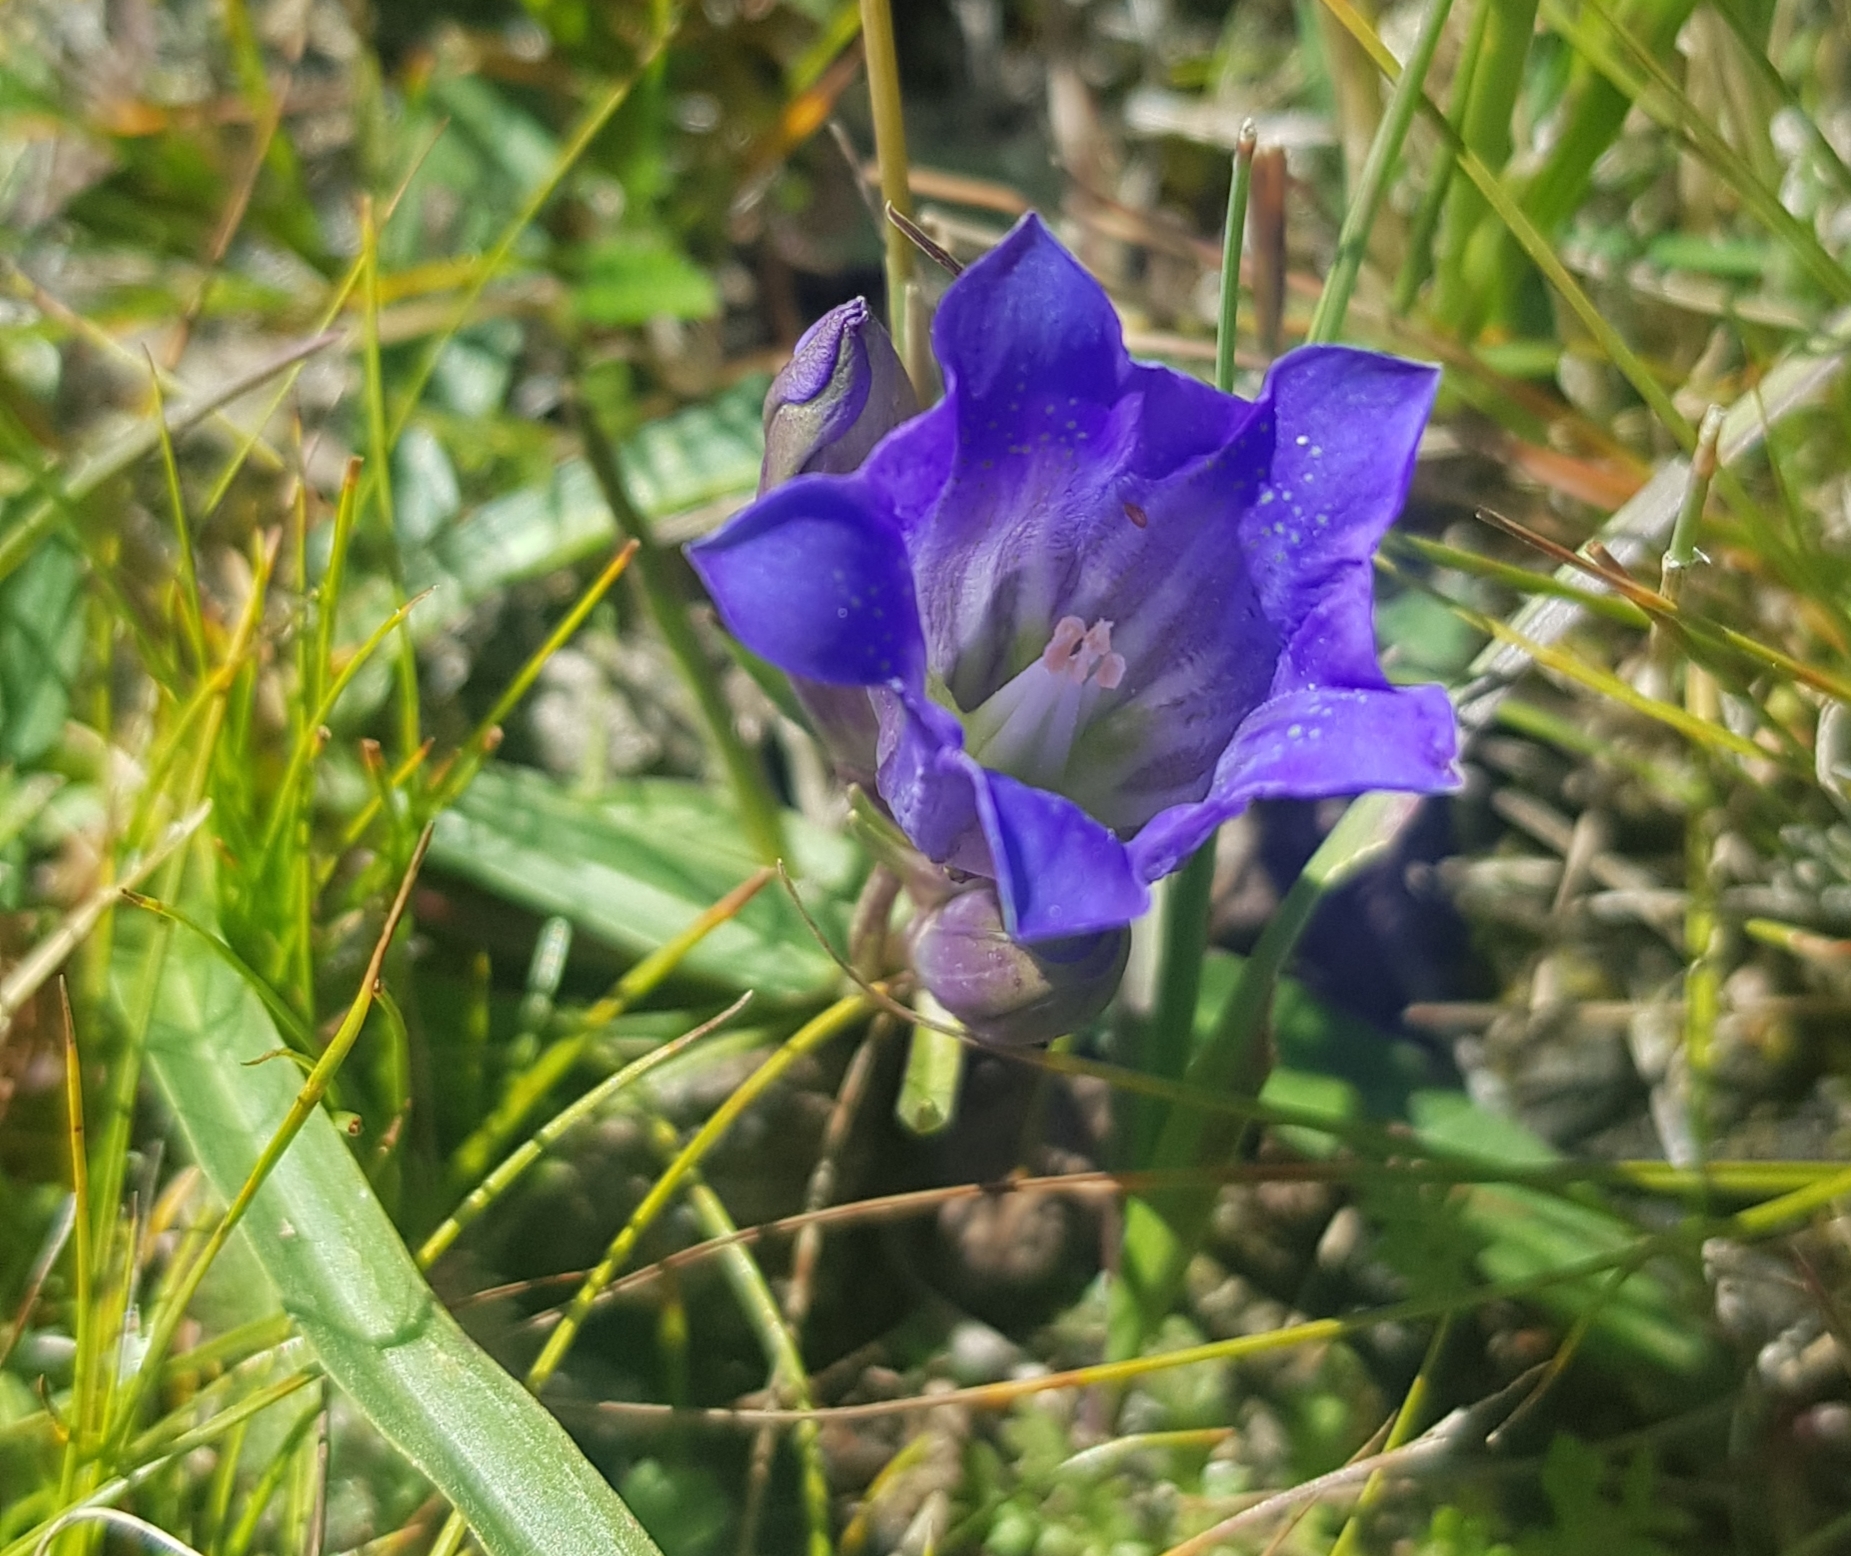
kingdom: Plantae
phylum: Tracheophyta
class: Magnoliopsida
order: Gentianales
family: Gentianaceae
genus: Gentiana
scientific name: Gentiana decumbens
